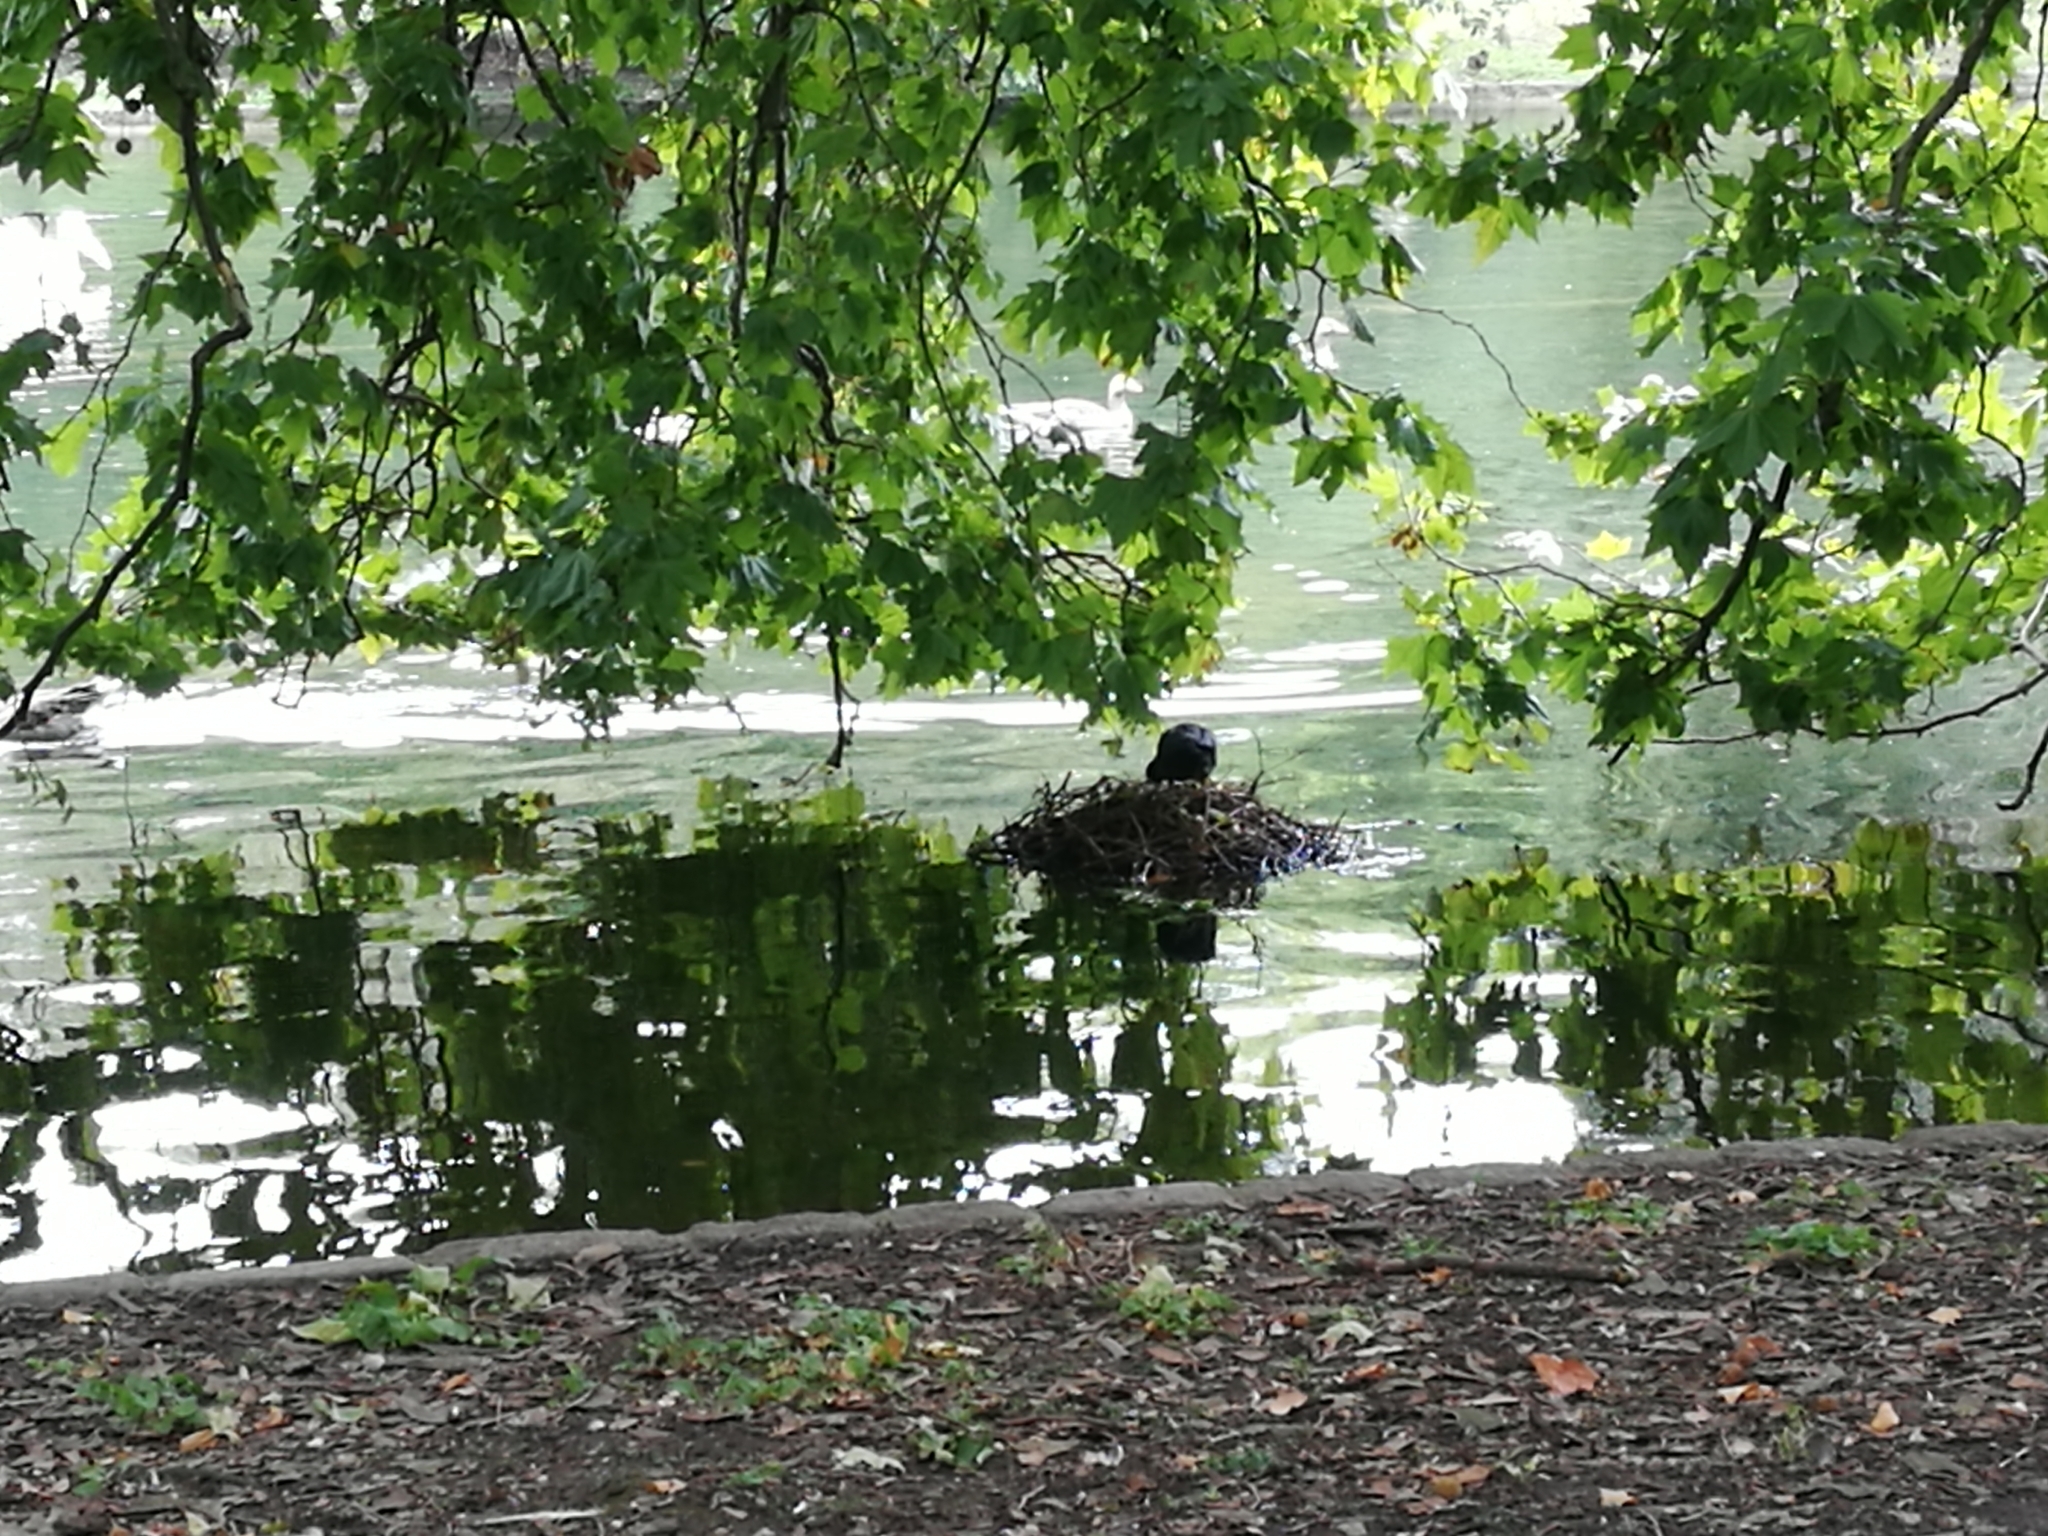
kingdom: Animalia
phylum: Chordata
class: Aves
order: Gruiformes
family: Rallidae
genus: Fulica
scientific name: Fulica atra
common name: Eurasian coot
